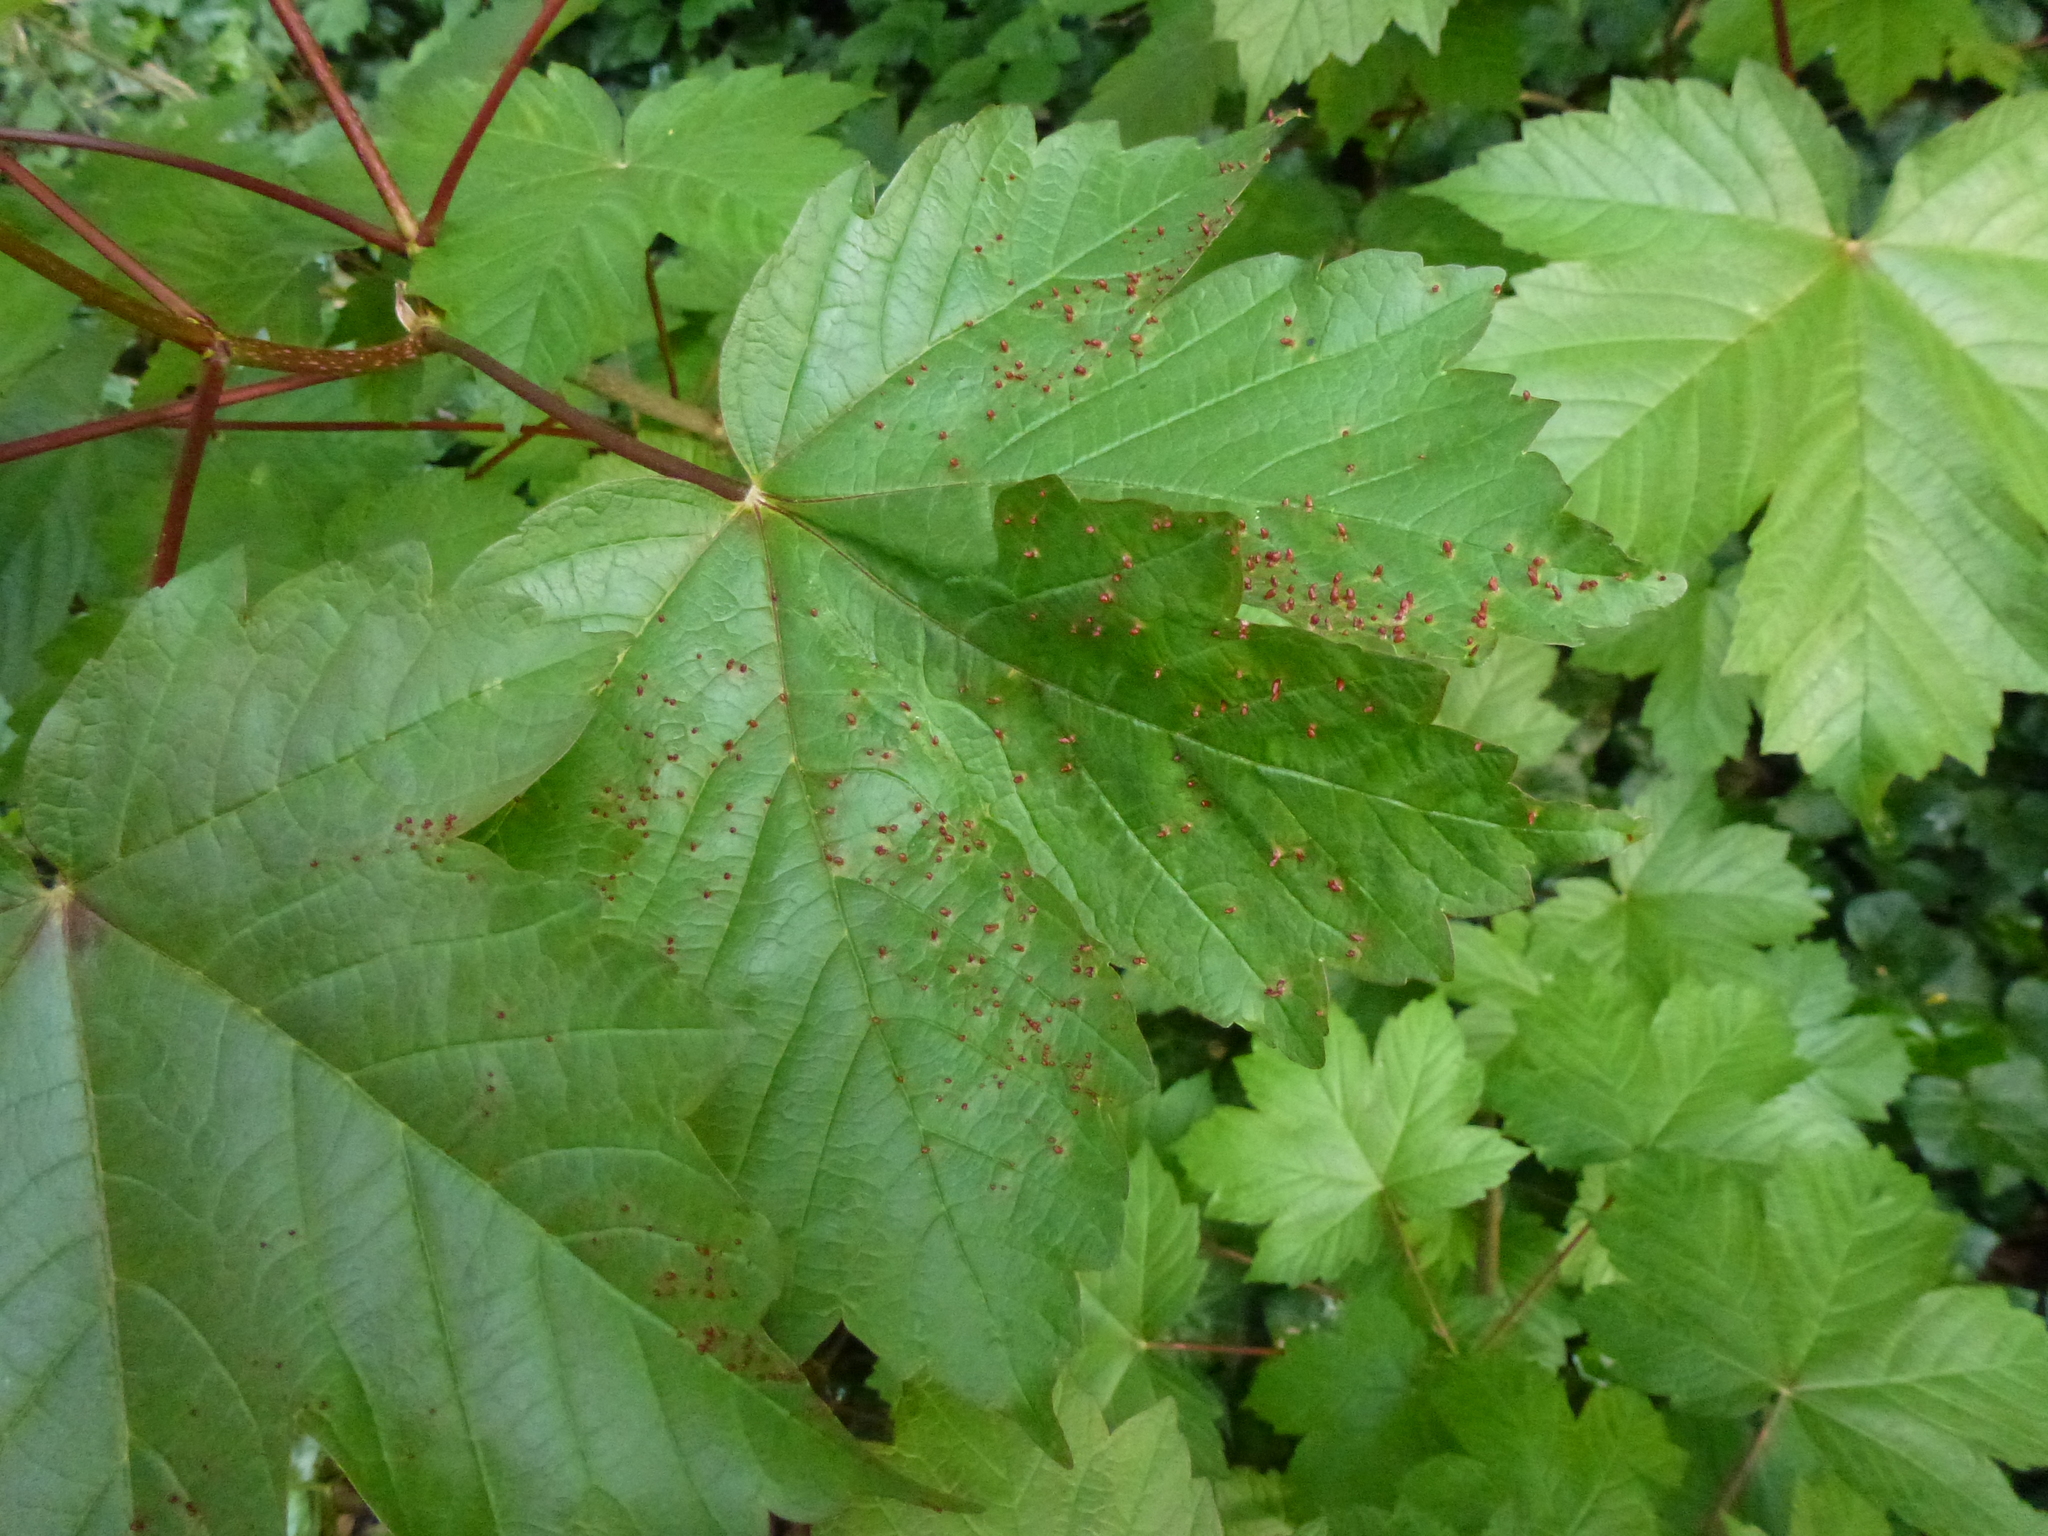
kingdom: Plantae
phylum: Tracheophyta
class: Magnoliopsida
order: Sapindales
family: Sapindaceae
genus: Acer
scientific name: Acer pseudoplatanus
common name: Sycamore
